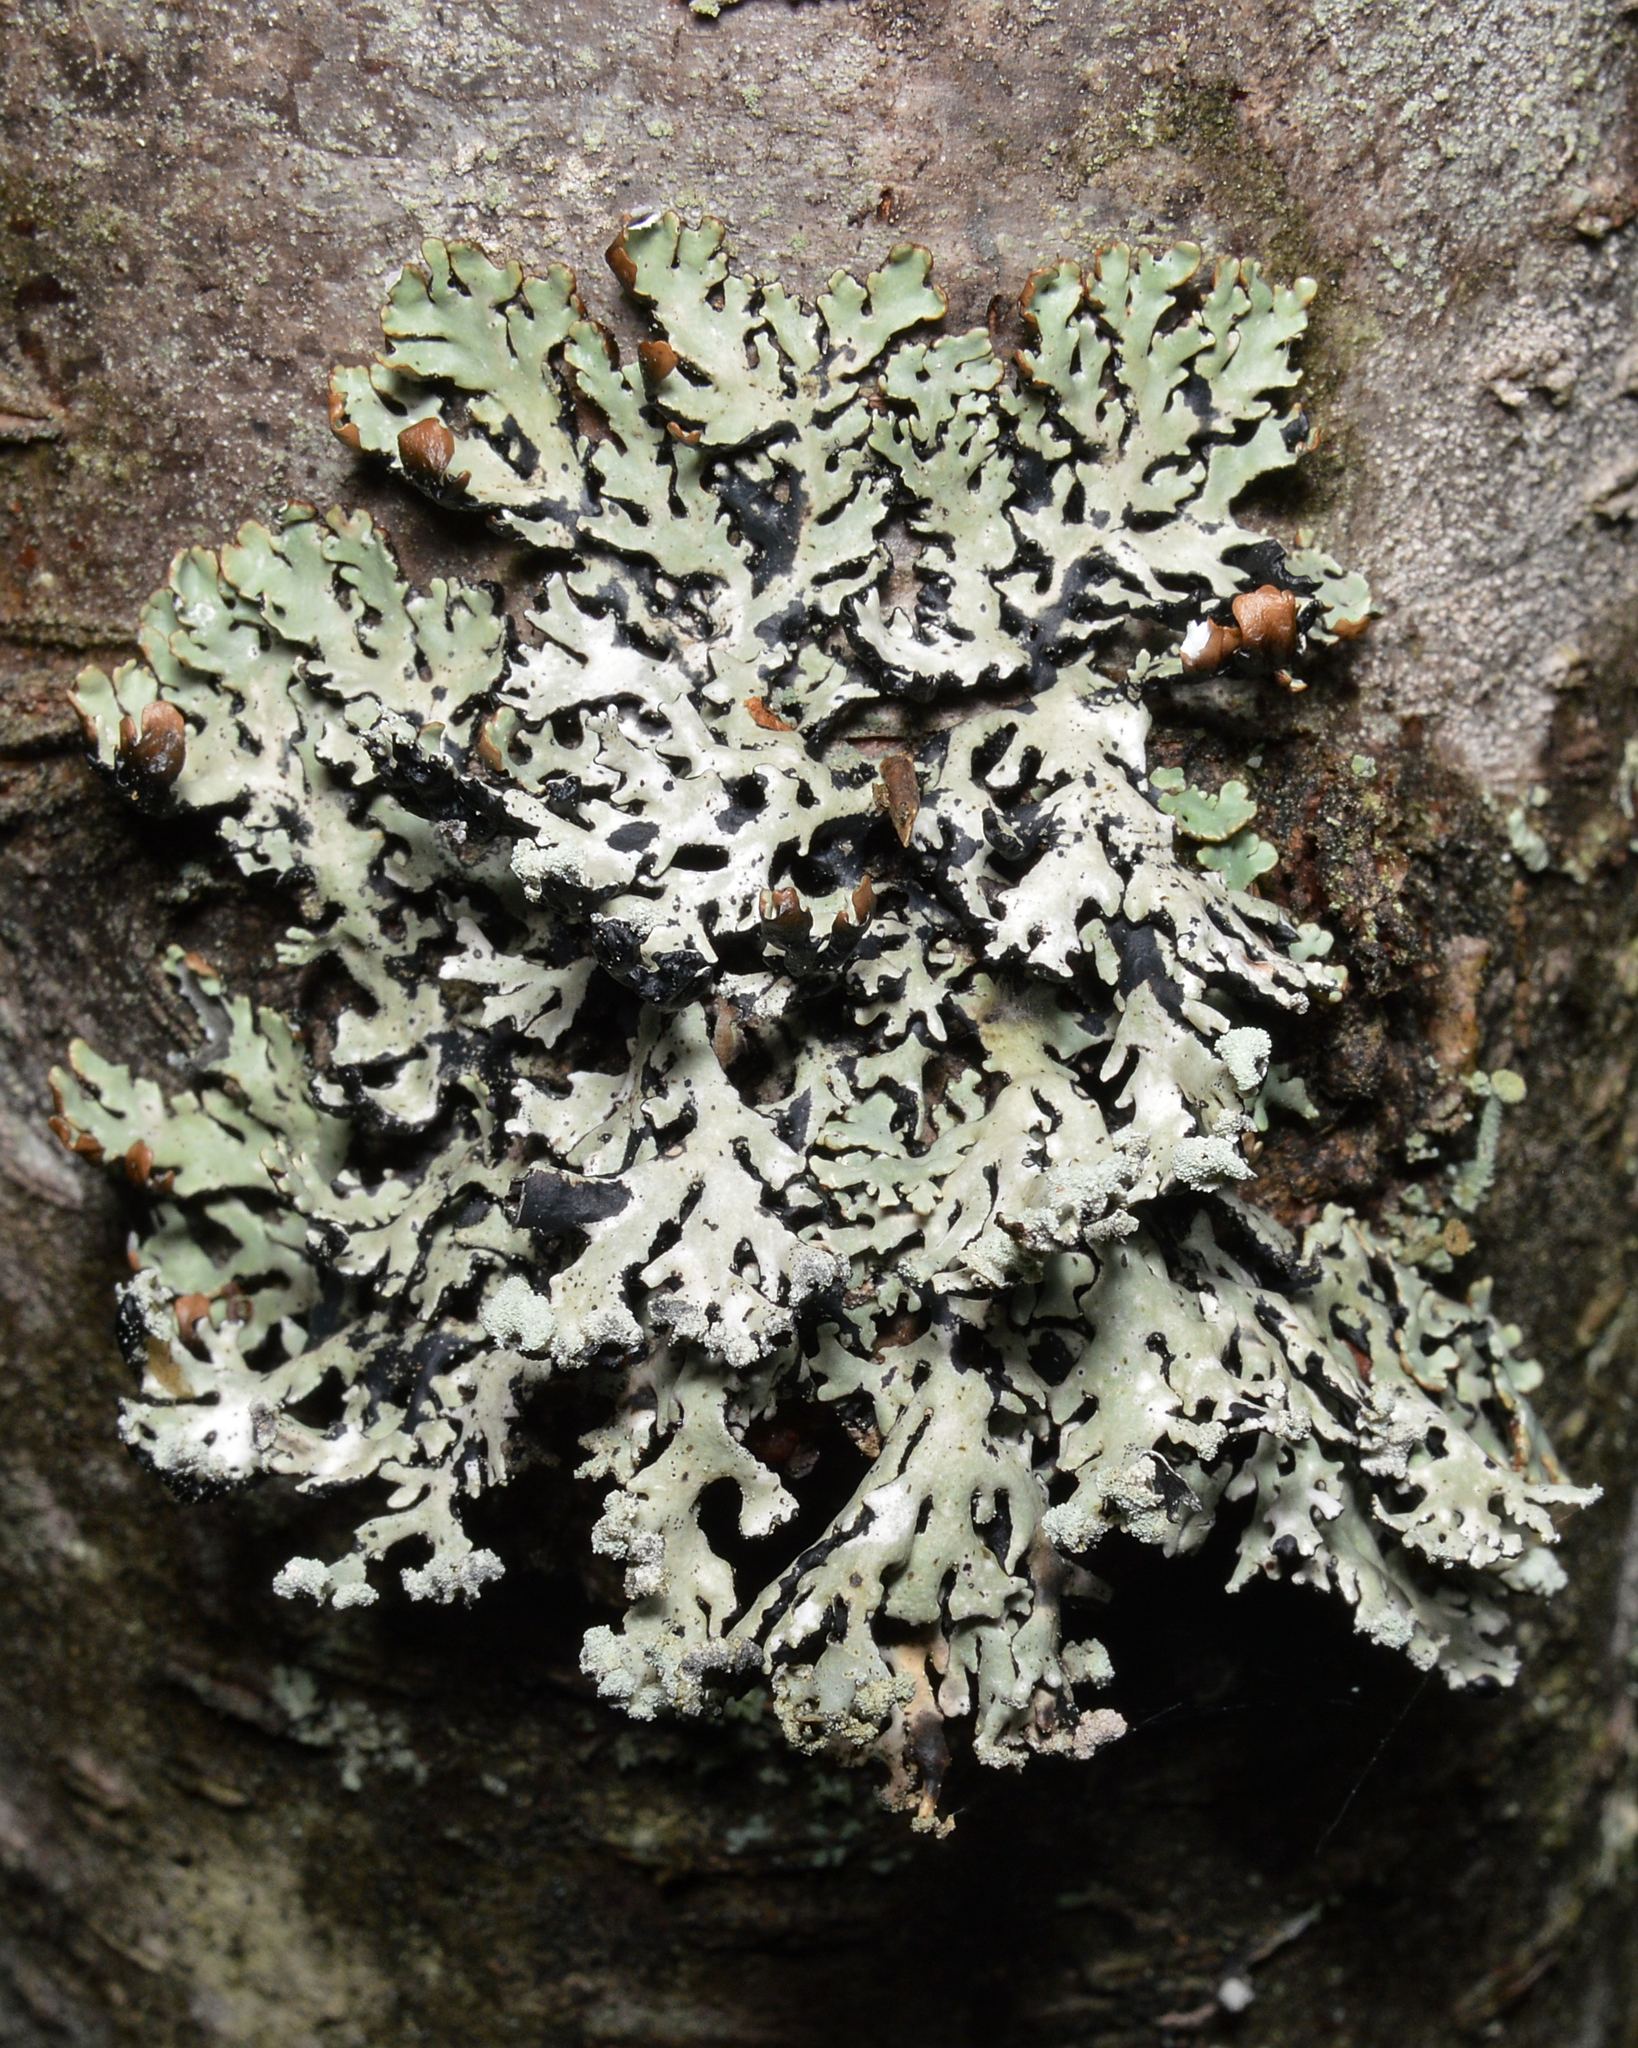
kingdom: Fungi
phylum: Ascomycota
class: Lecanoromycetes
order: Lecanorales
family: Parmeliaceae
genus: Hypogymnia
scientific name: Hypogymnia physodes
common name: Dark crottle
